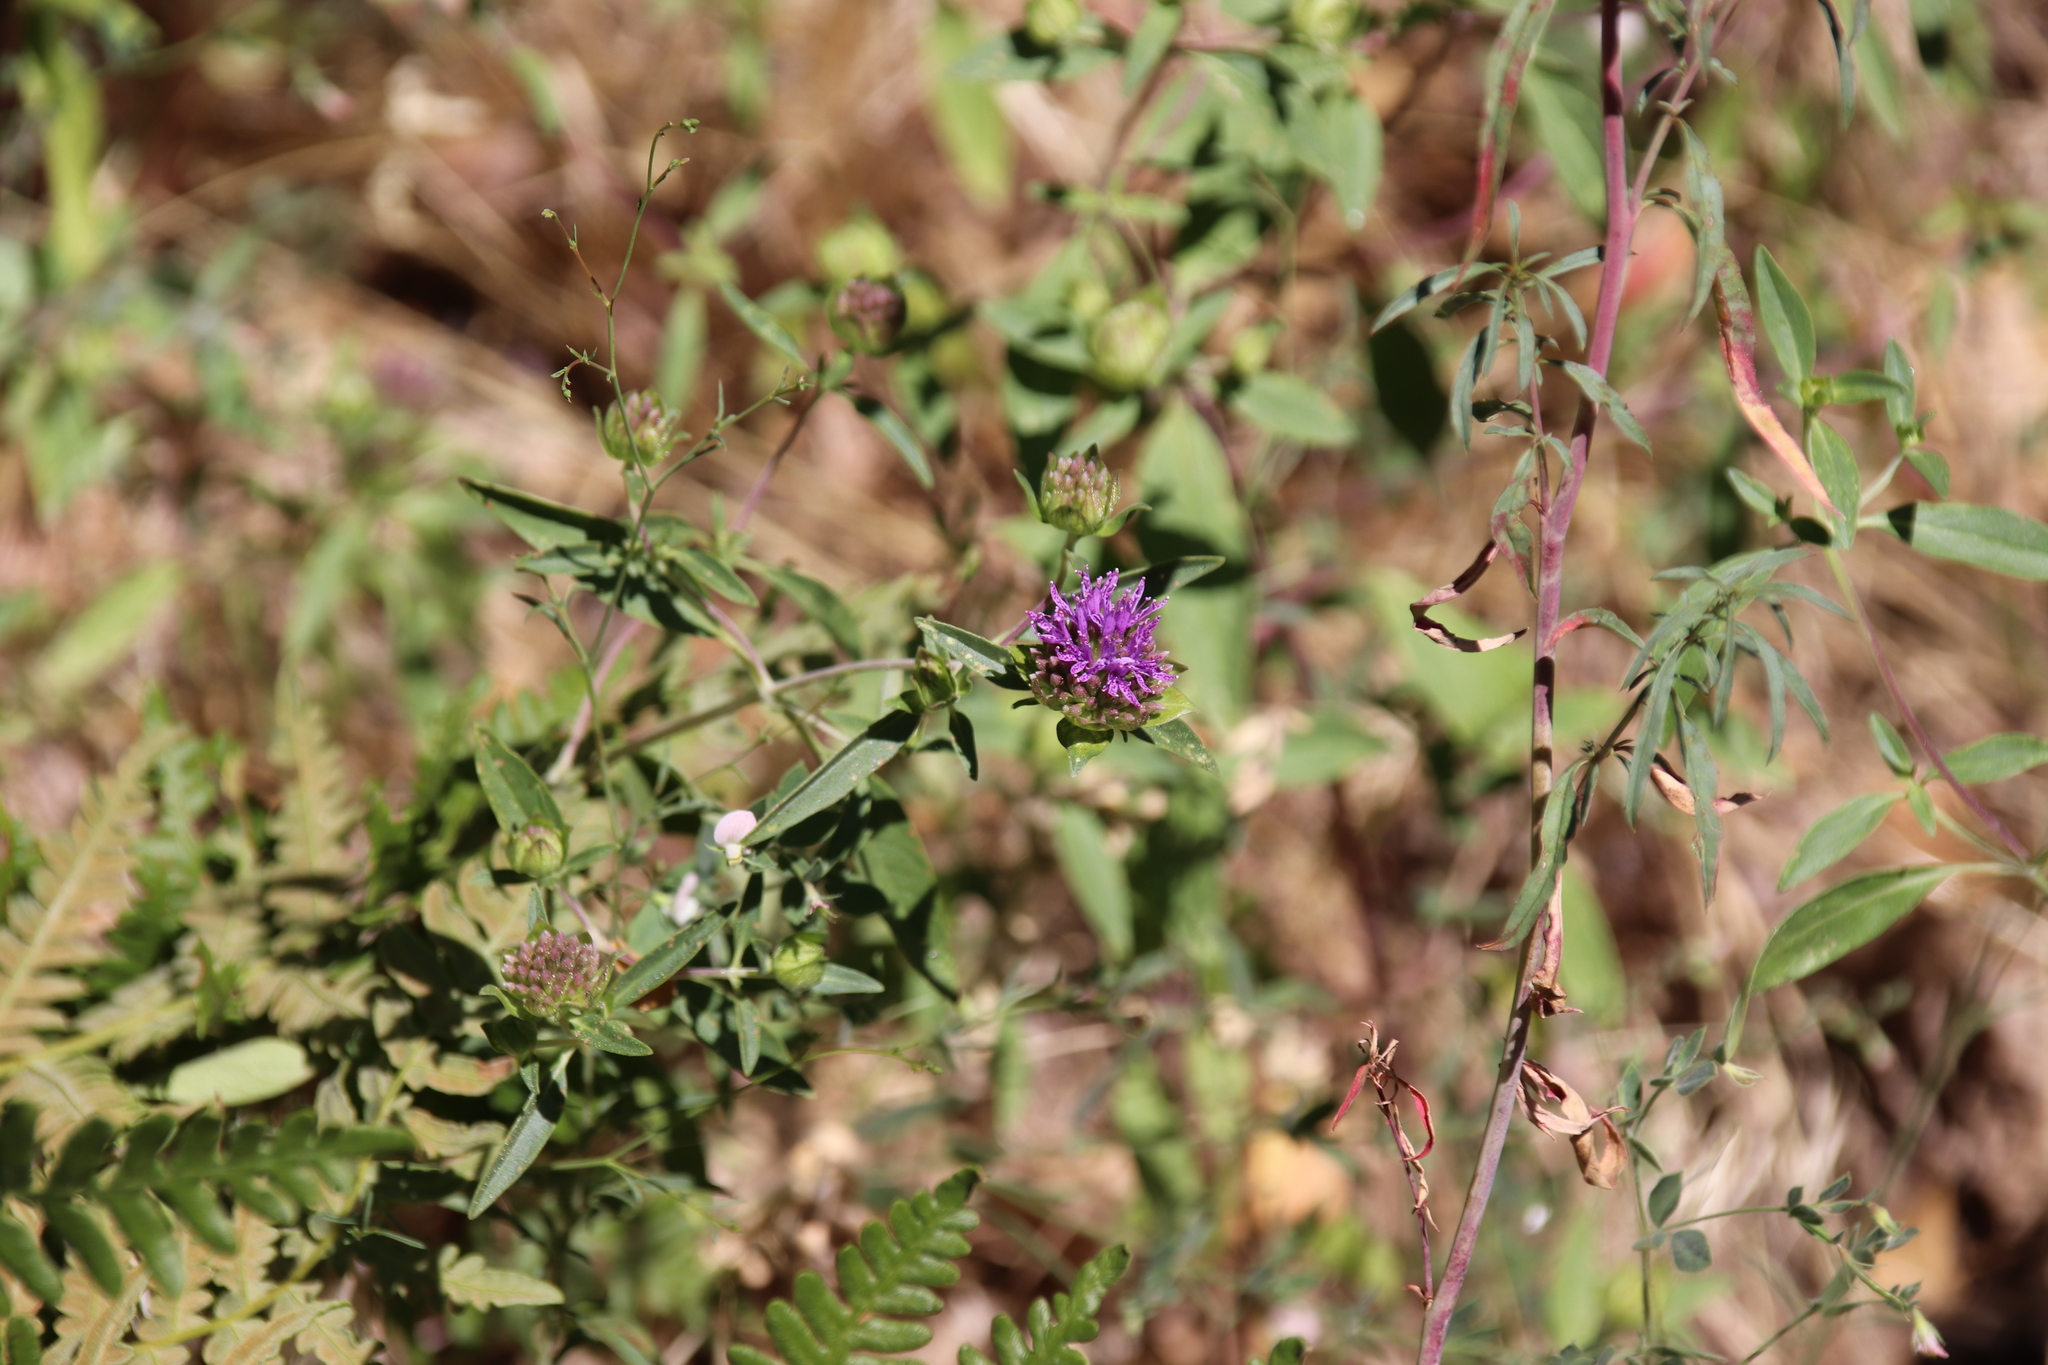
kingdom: Plantae
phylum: Tracheophyta
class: Magnoliopsida
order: Lamiales
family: Lamiaceae
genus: Monardella
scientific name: Monardella breweri
